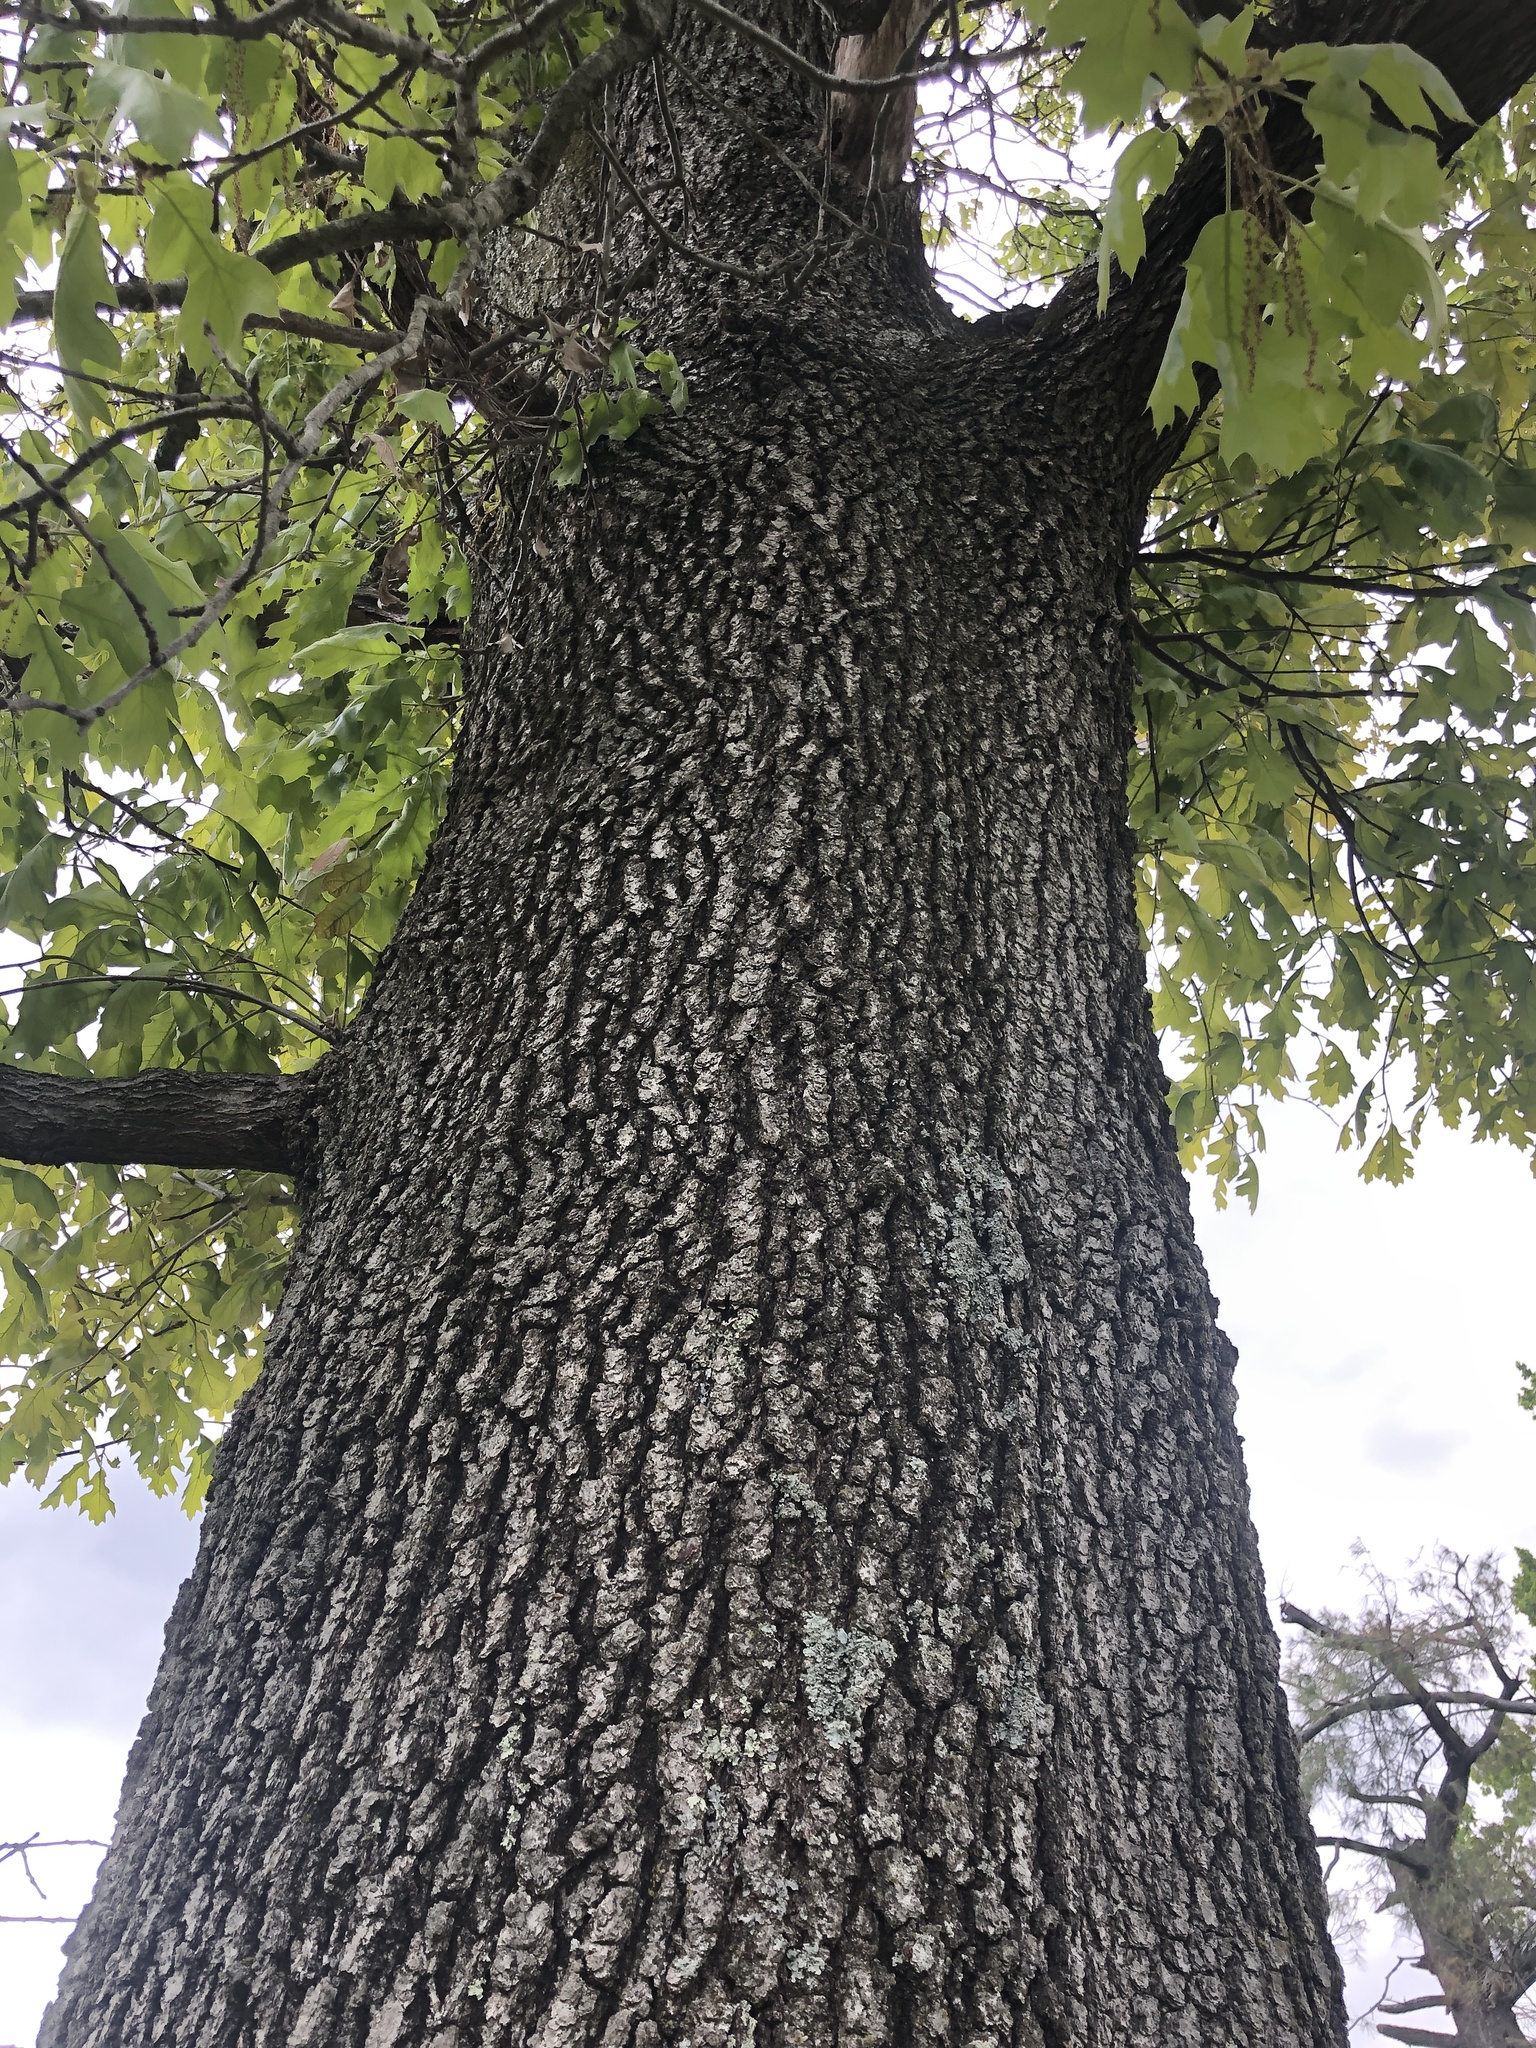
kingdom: Plantae
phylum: Tracheophyta
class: Magnoliopsida
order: Fagales
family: Fagaceae
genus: Quercus
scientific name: Quercus velutina
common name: Black oak
